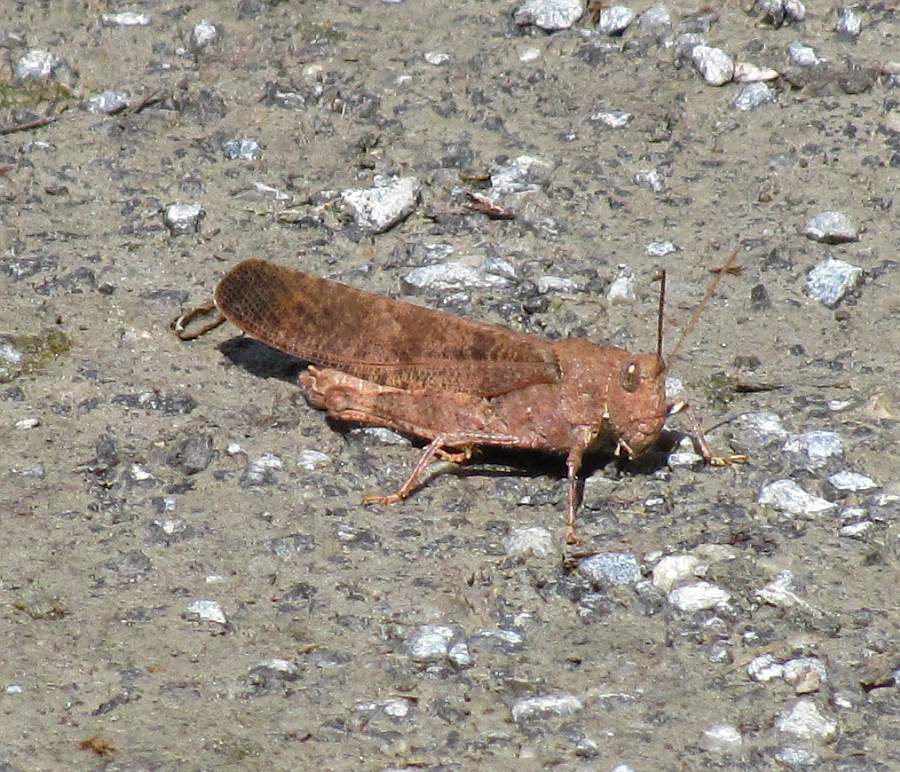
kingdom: Animalia
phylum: Arthropoda
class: Insecta
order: Orthoptera
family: Acrididae
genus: Dissosteira
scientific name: Dissosteira carolina
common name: Carolina grasshopper
